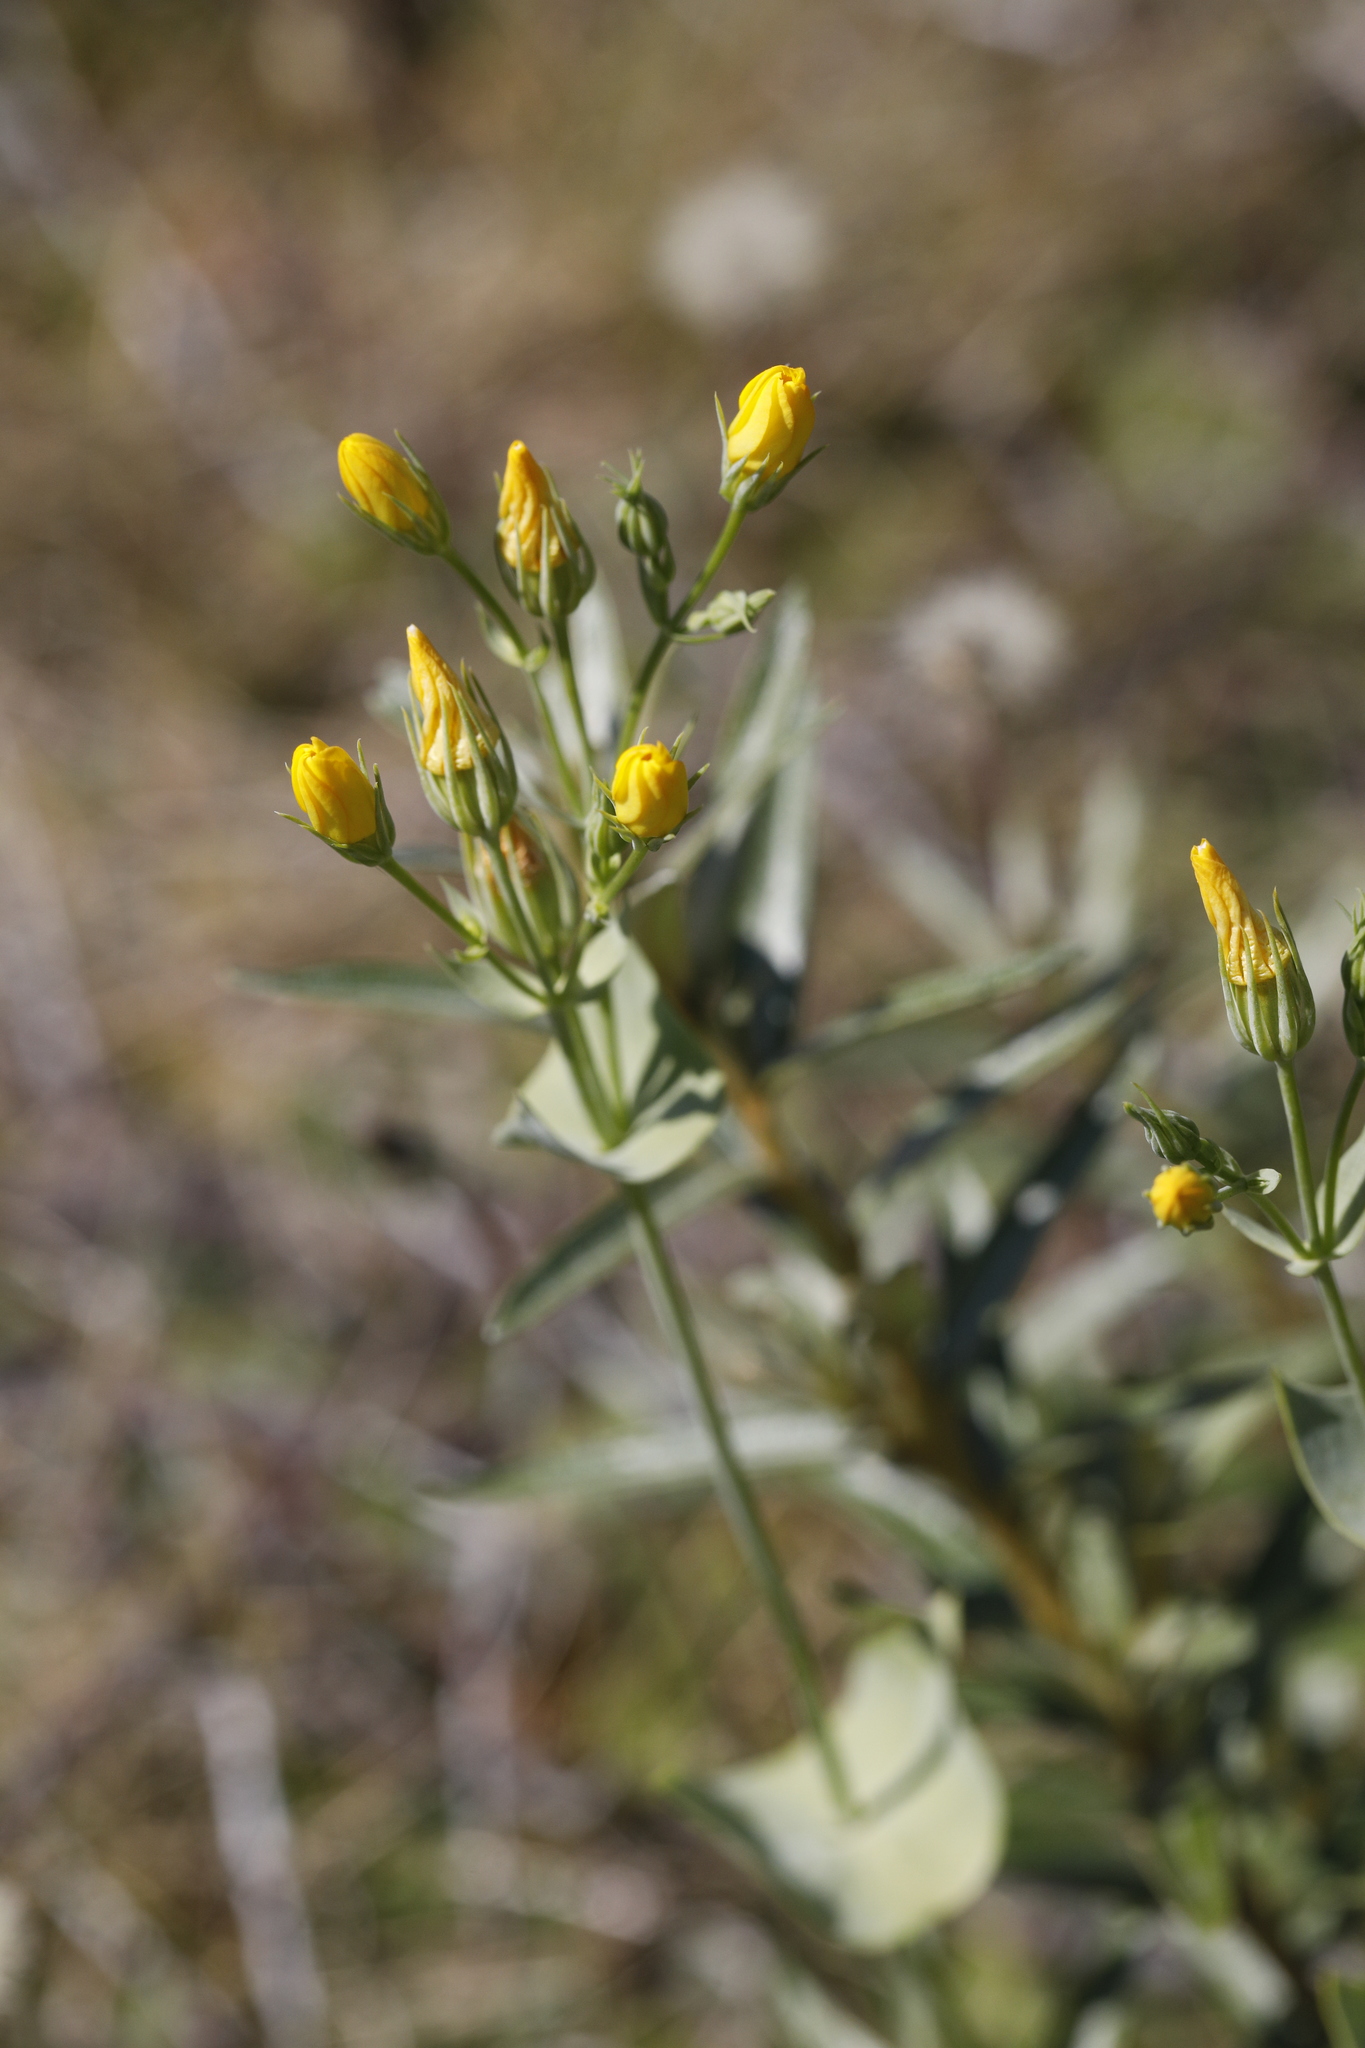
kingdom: Plantae
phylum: Tracheophyta
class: Magnoliopsida
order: Gentianales
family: Gentianaceae
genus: Blackstonia
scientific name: Blackstonia perfoliata
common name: Yellow-wort
